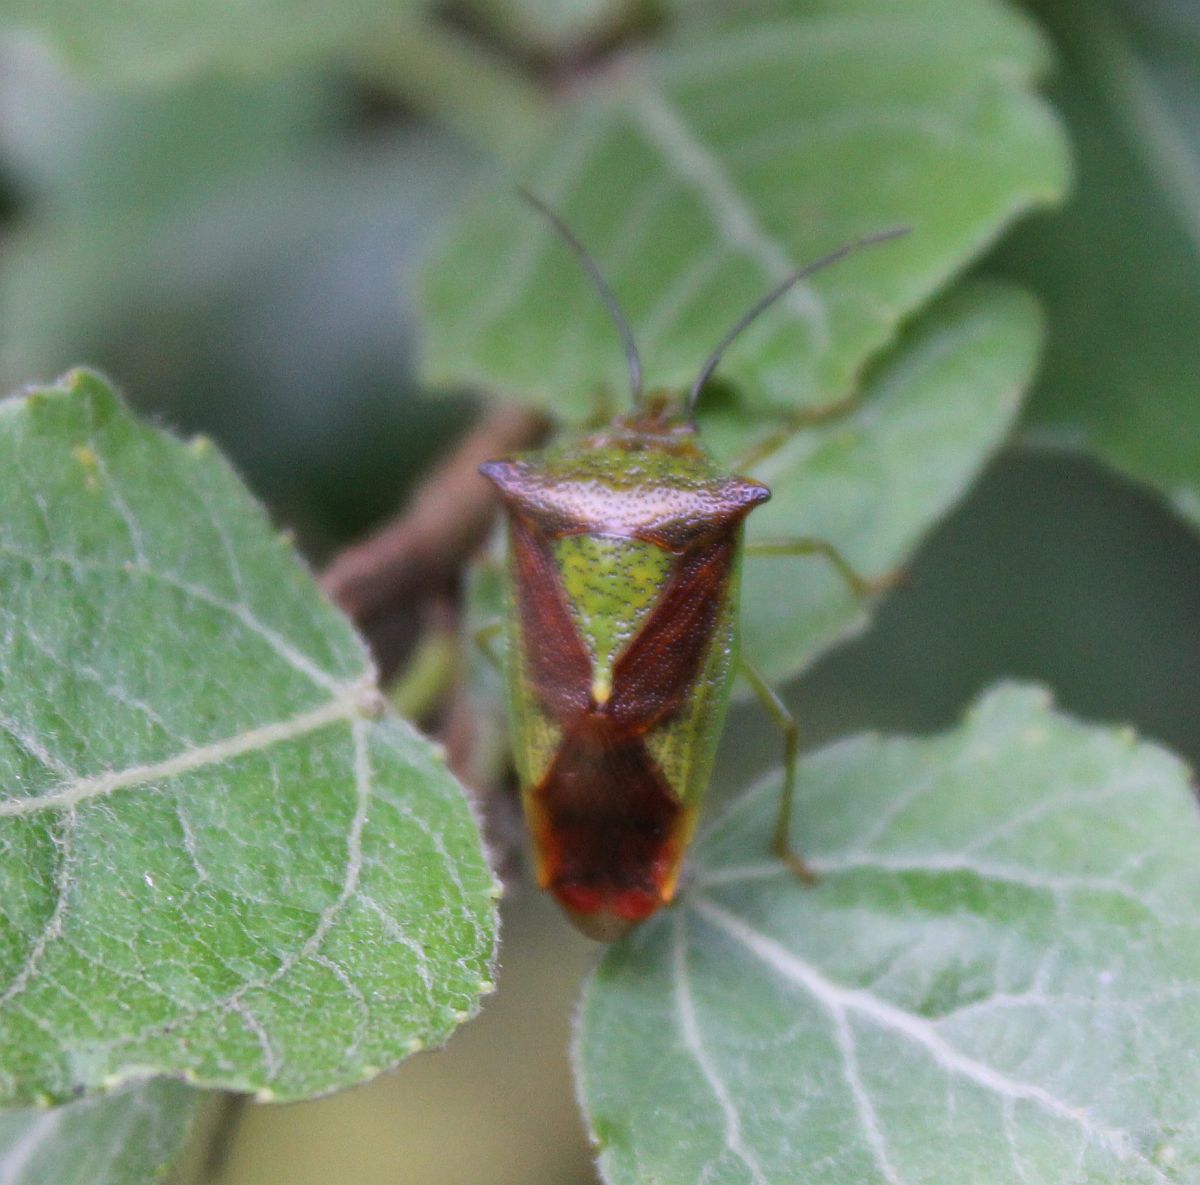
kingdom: Animalia
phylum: Arthropoda
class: Insecta
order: Hemiptera
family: Acanthosomatidae
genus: Acanthosoma
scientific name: Acanthosoma haemorrhoidale
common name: Hawthorn shieldbug
